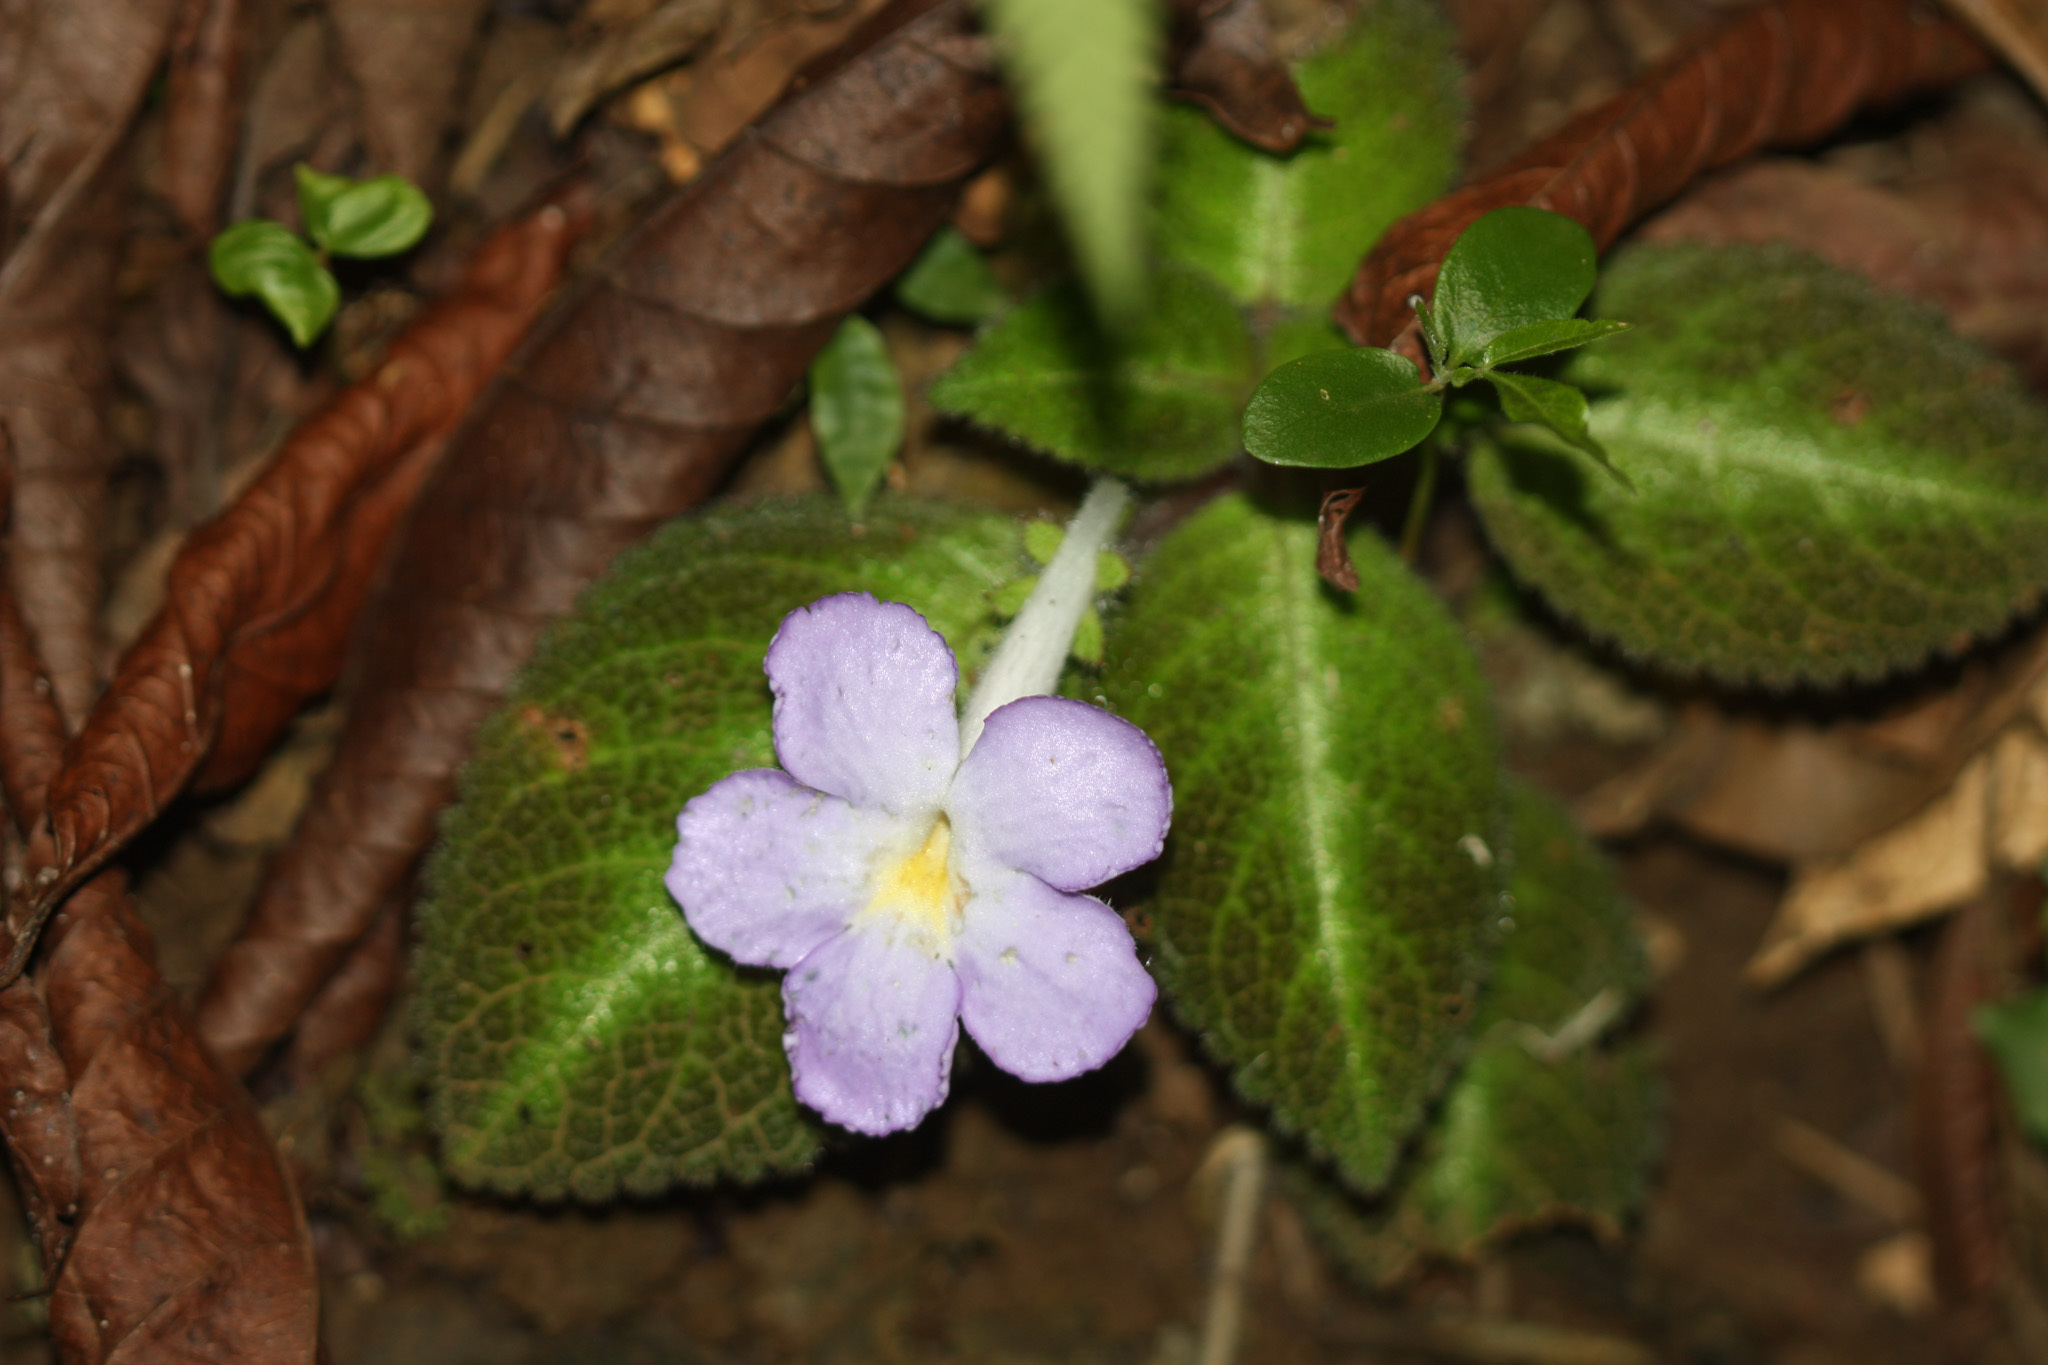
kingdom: Plantae
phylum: Tracheophyta
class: Magnoliopsida
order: Lamiales
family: Gesneriaceae
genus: Episcia
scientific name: Episcia lilacina
